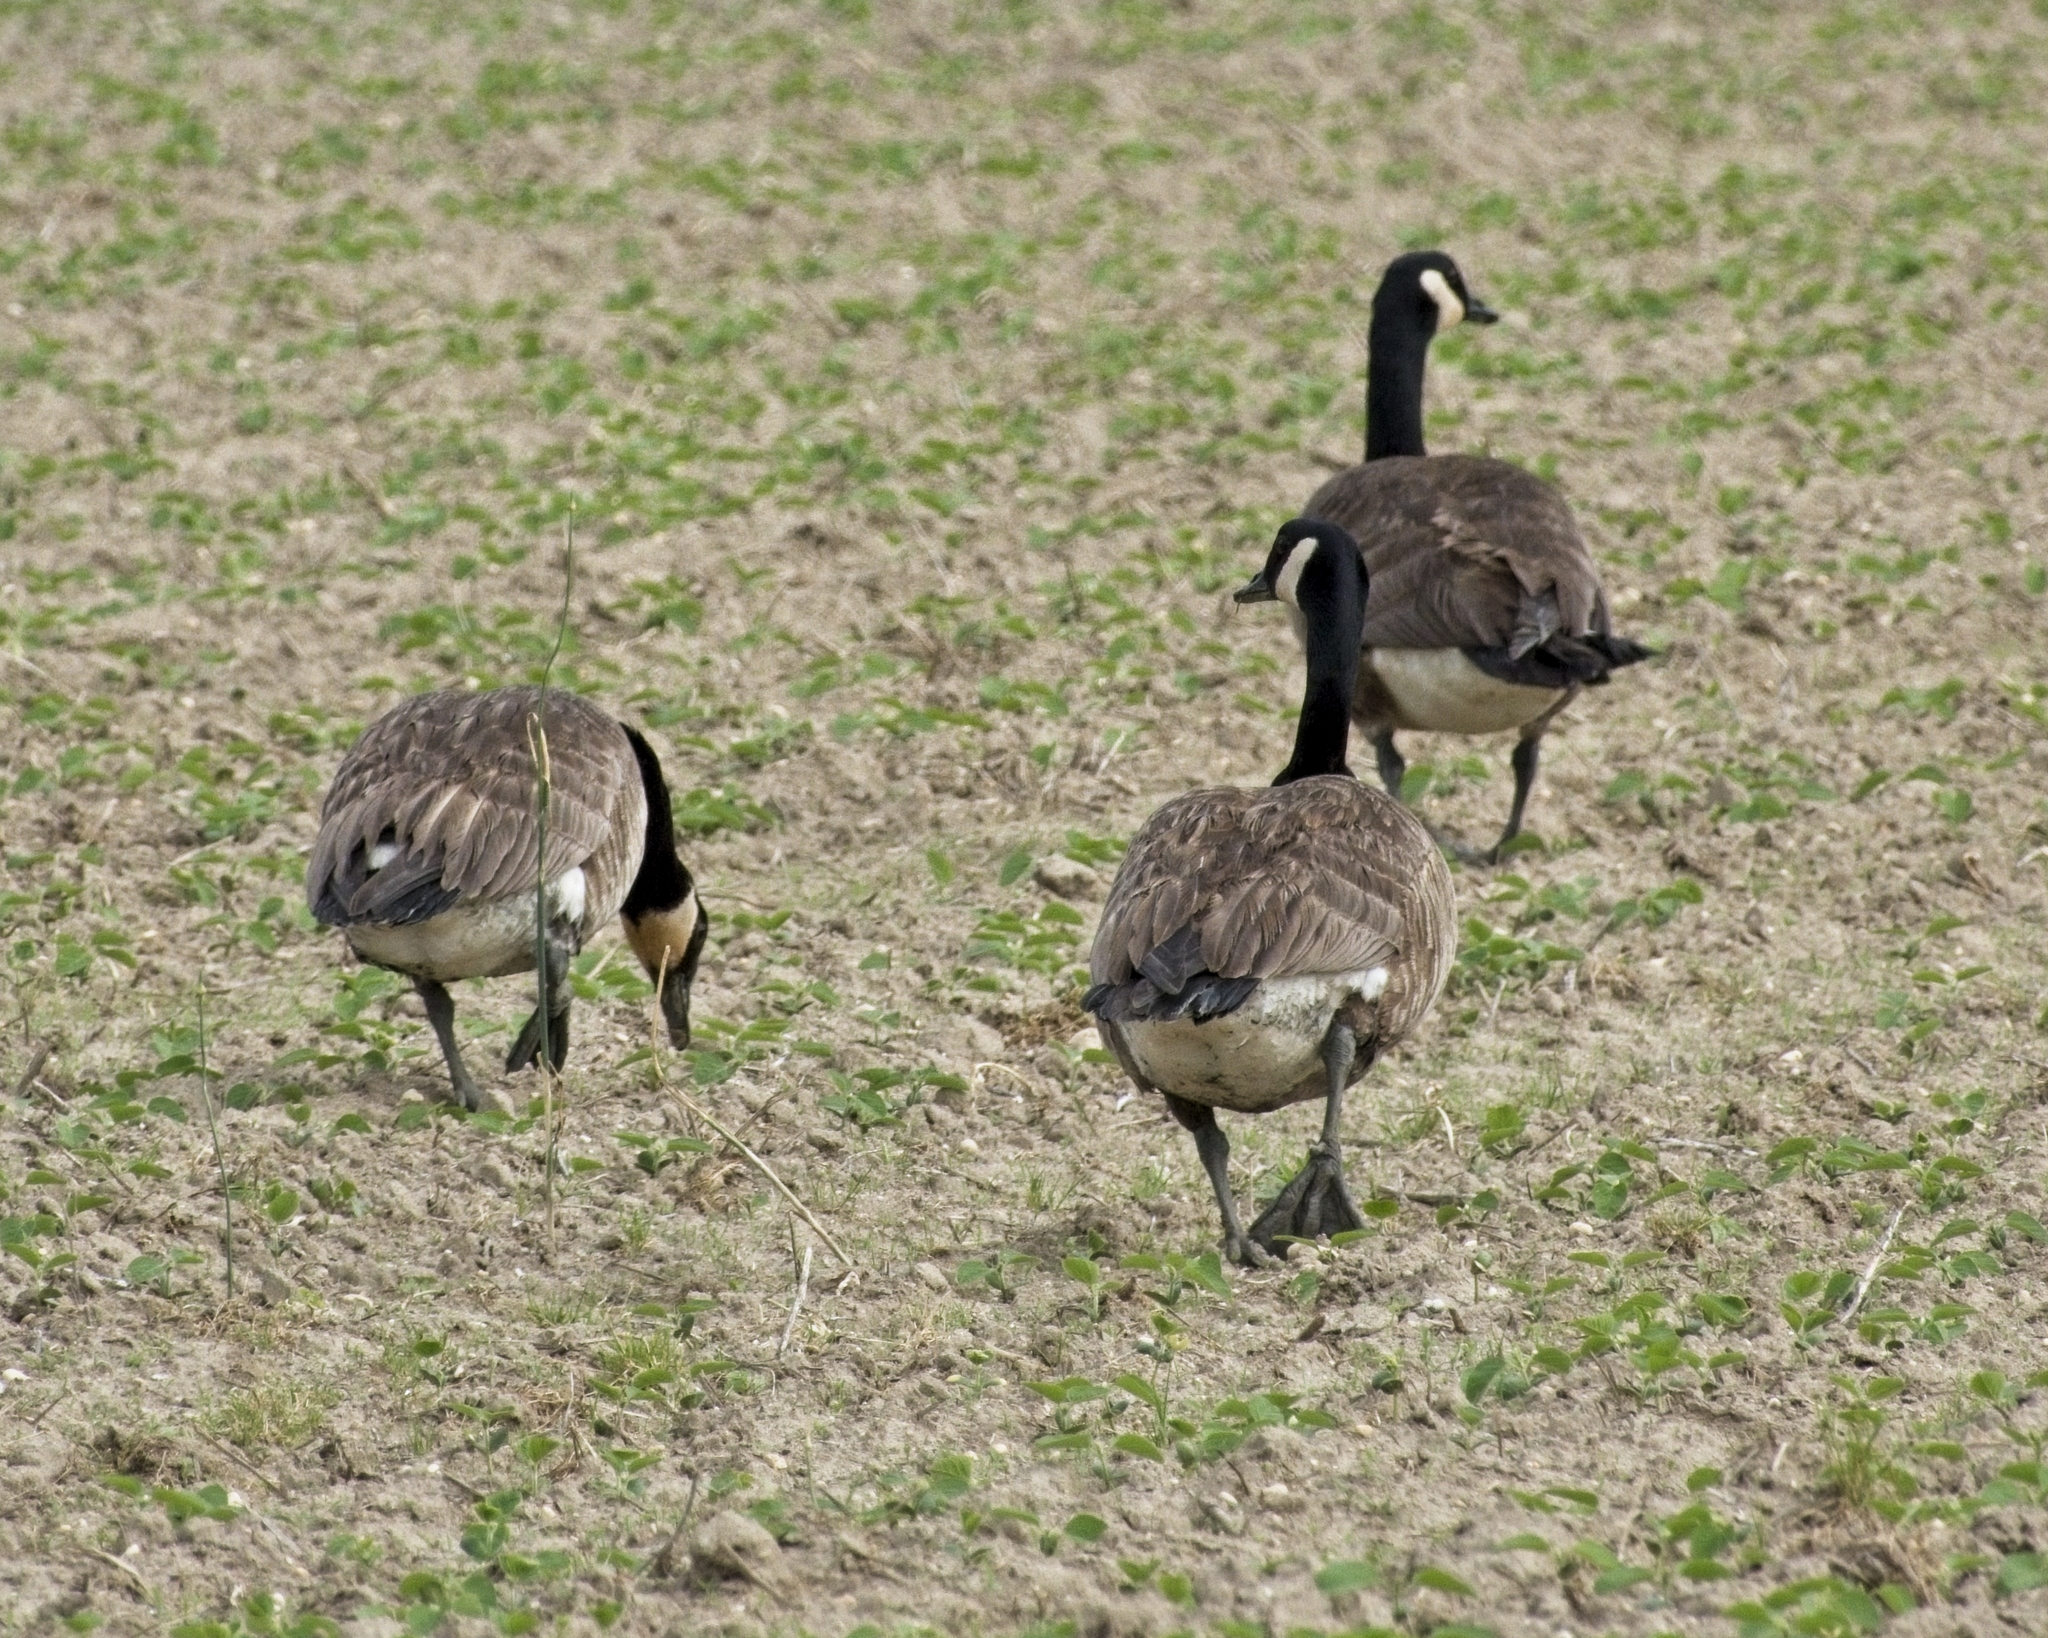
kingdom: Animalia
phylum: Chordata
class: Aves
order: Anseriformes
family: Anatidae
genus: Branta
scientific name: Branta canadensis
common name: Canada goose
